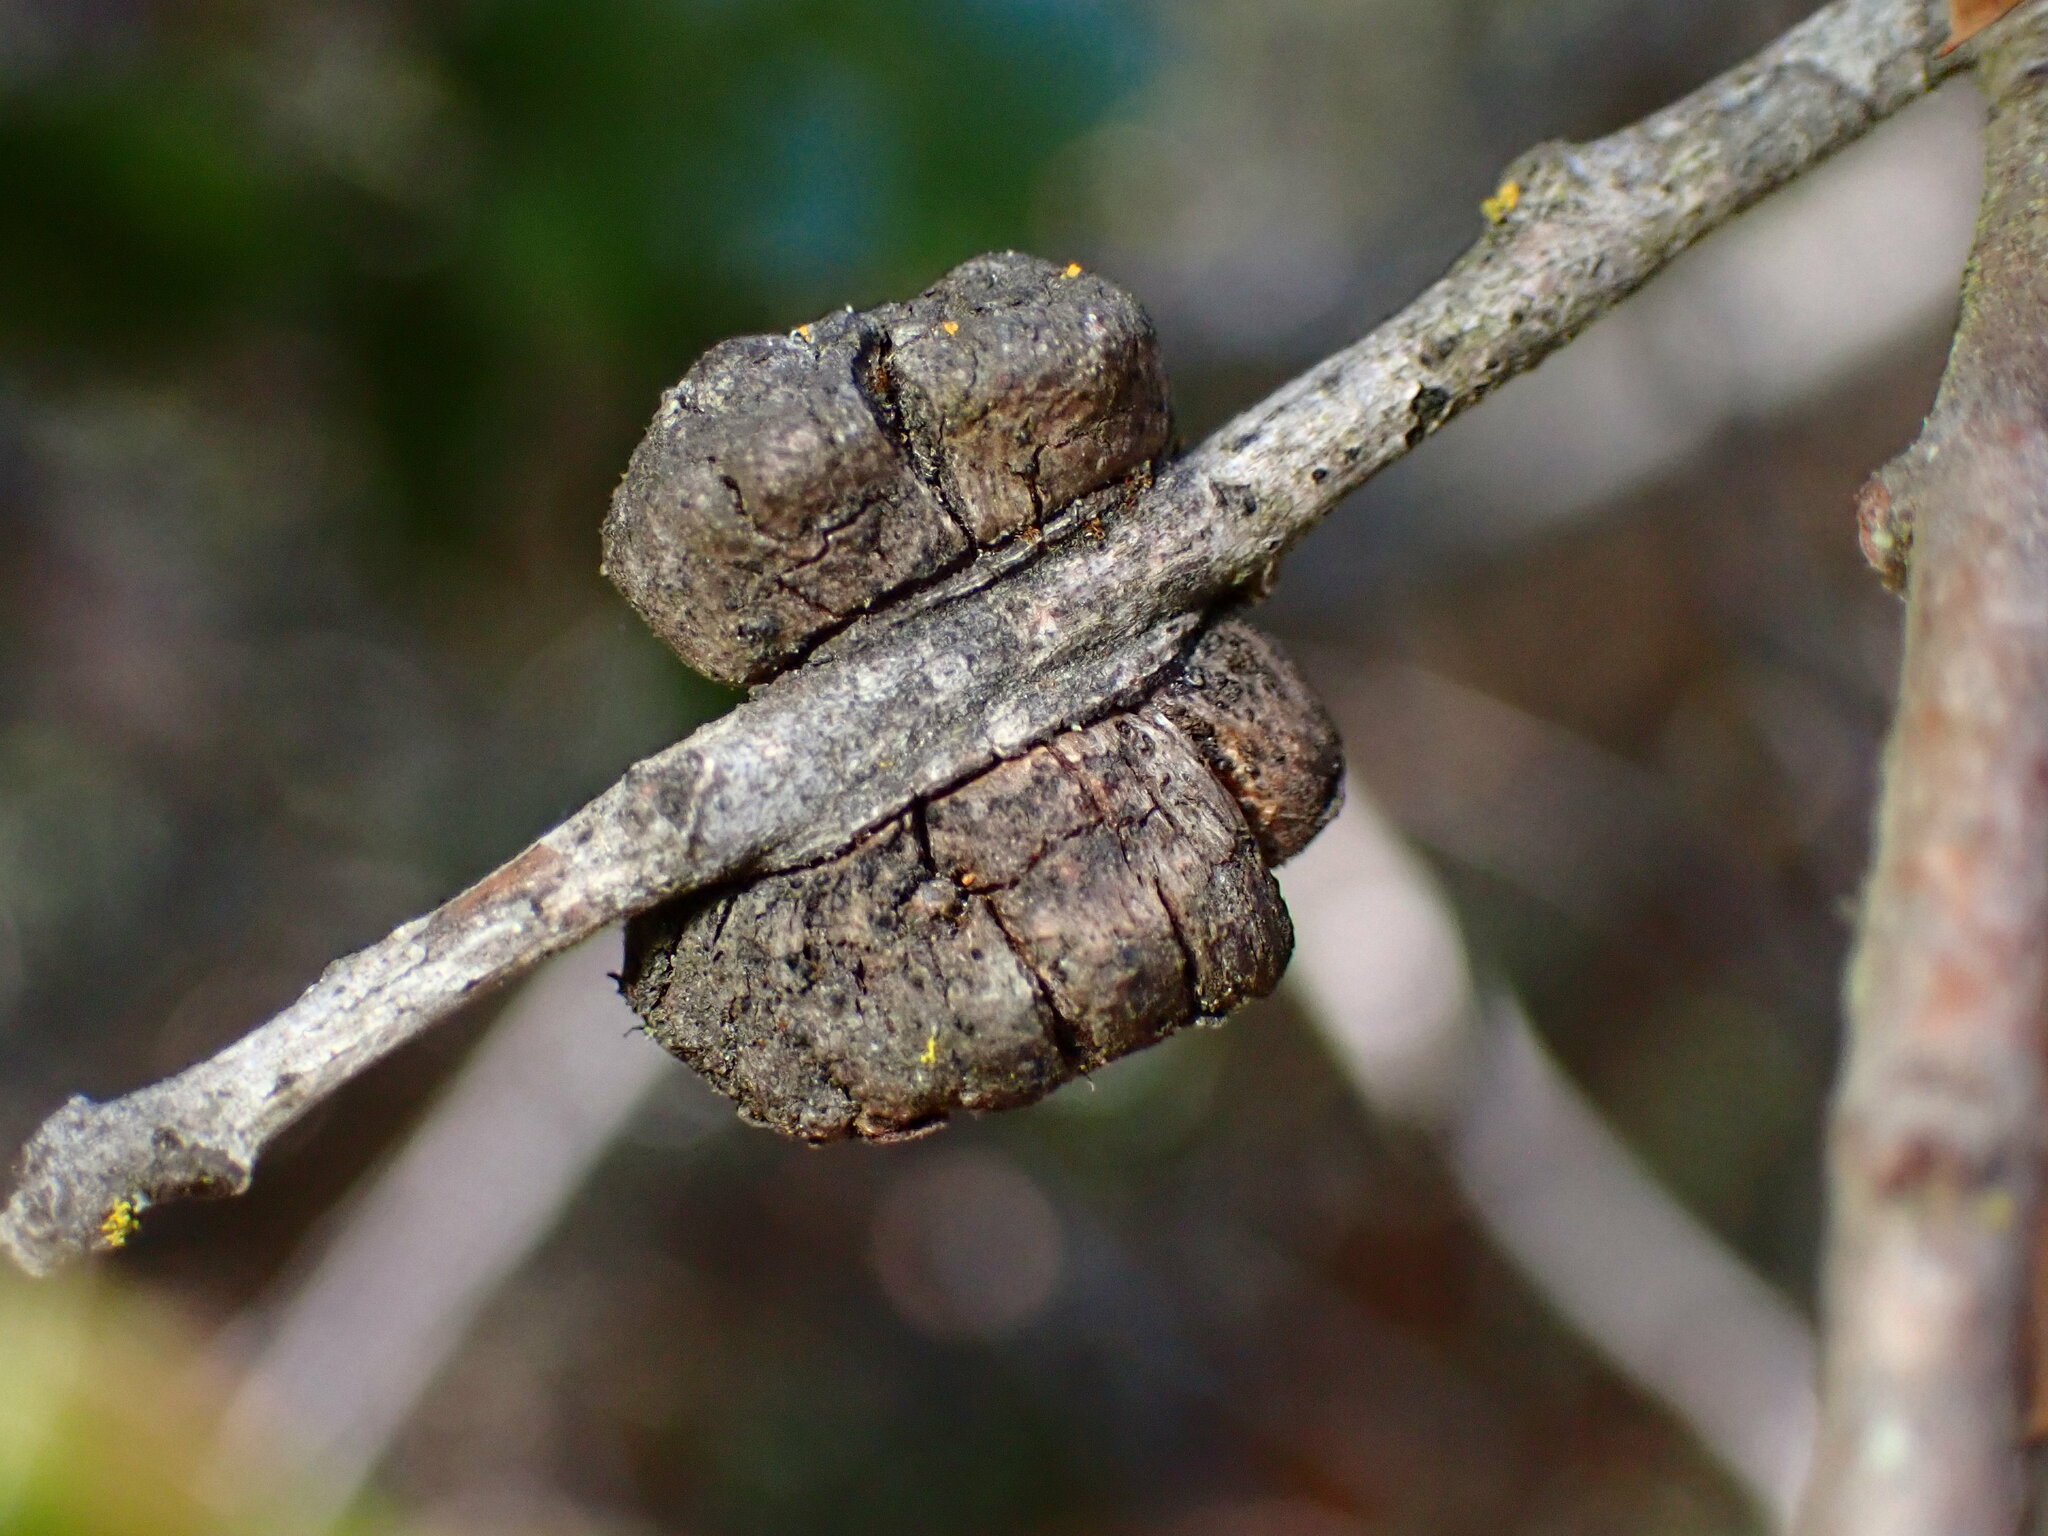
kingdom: Animalia
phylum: Arthropoda
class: Insecta
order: Hymenoptera
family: Cynipidae
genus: Disholandricus
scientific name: Disholandricus
